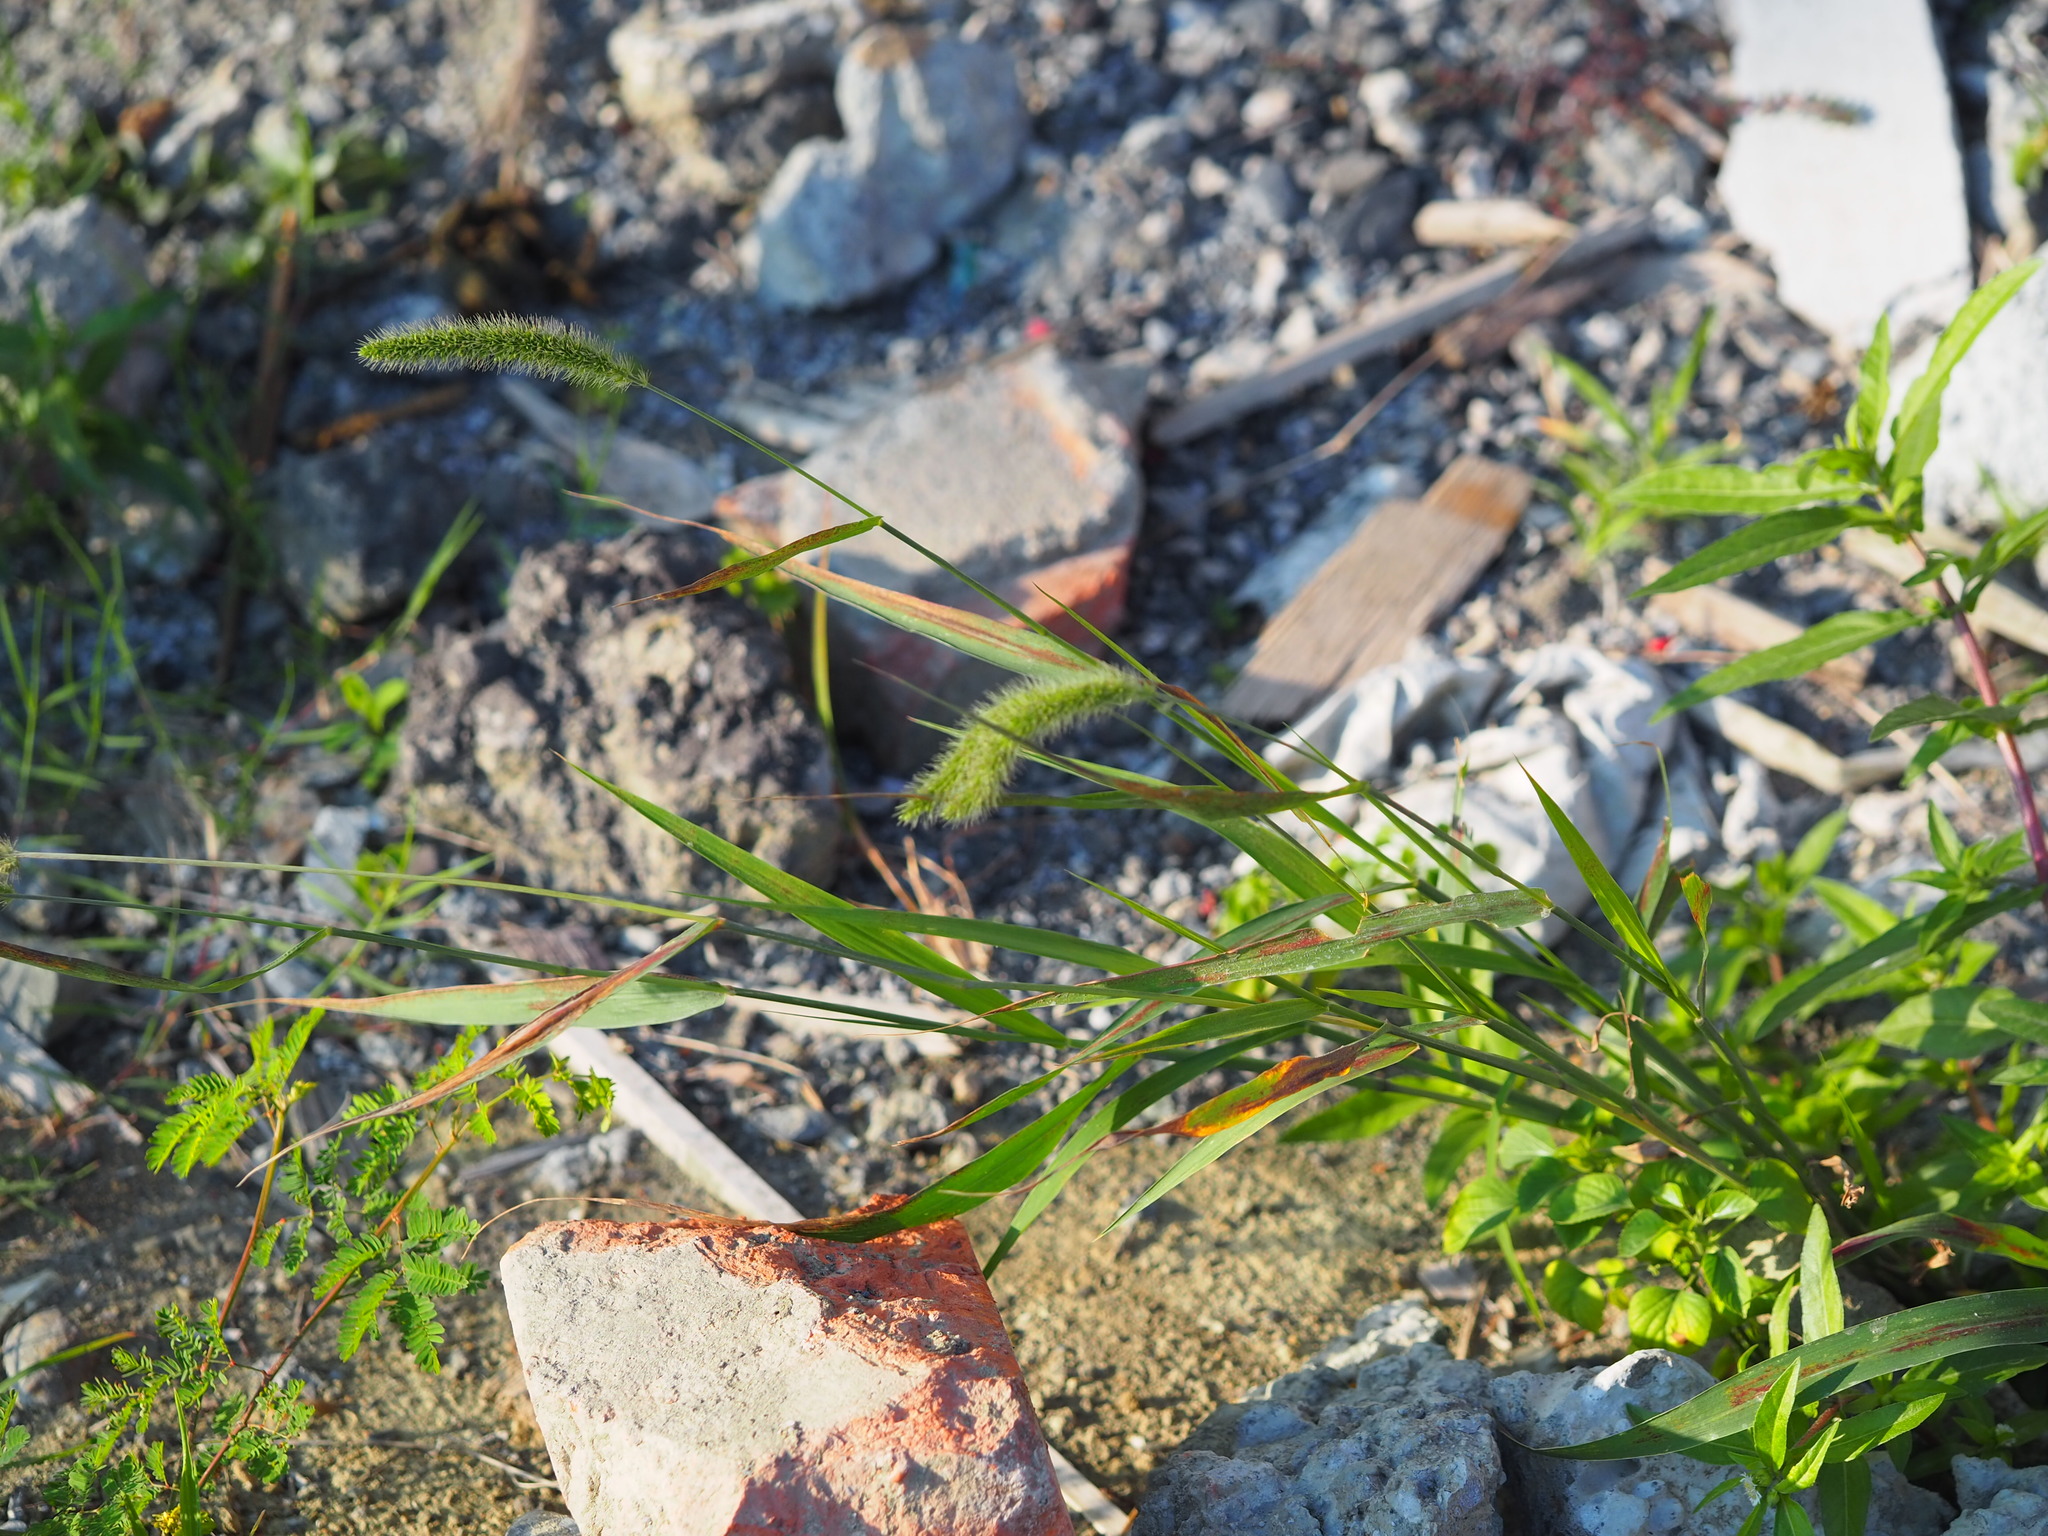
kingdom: Plantae
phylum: Tracheophyta
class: Liliopsida
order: Poales
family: Poaceae
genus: Setaria
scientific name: Setaria verticillata
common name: Hooked bristlegrass
